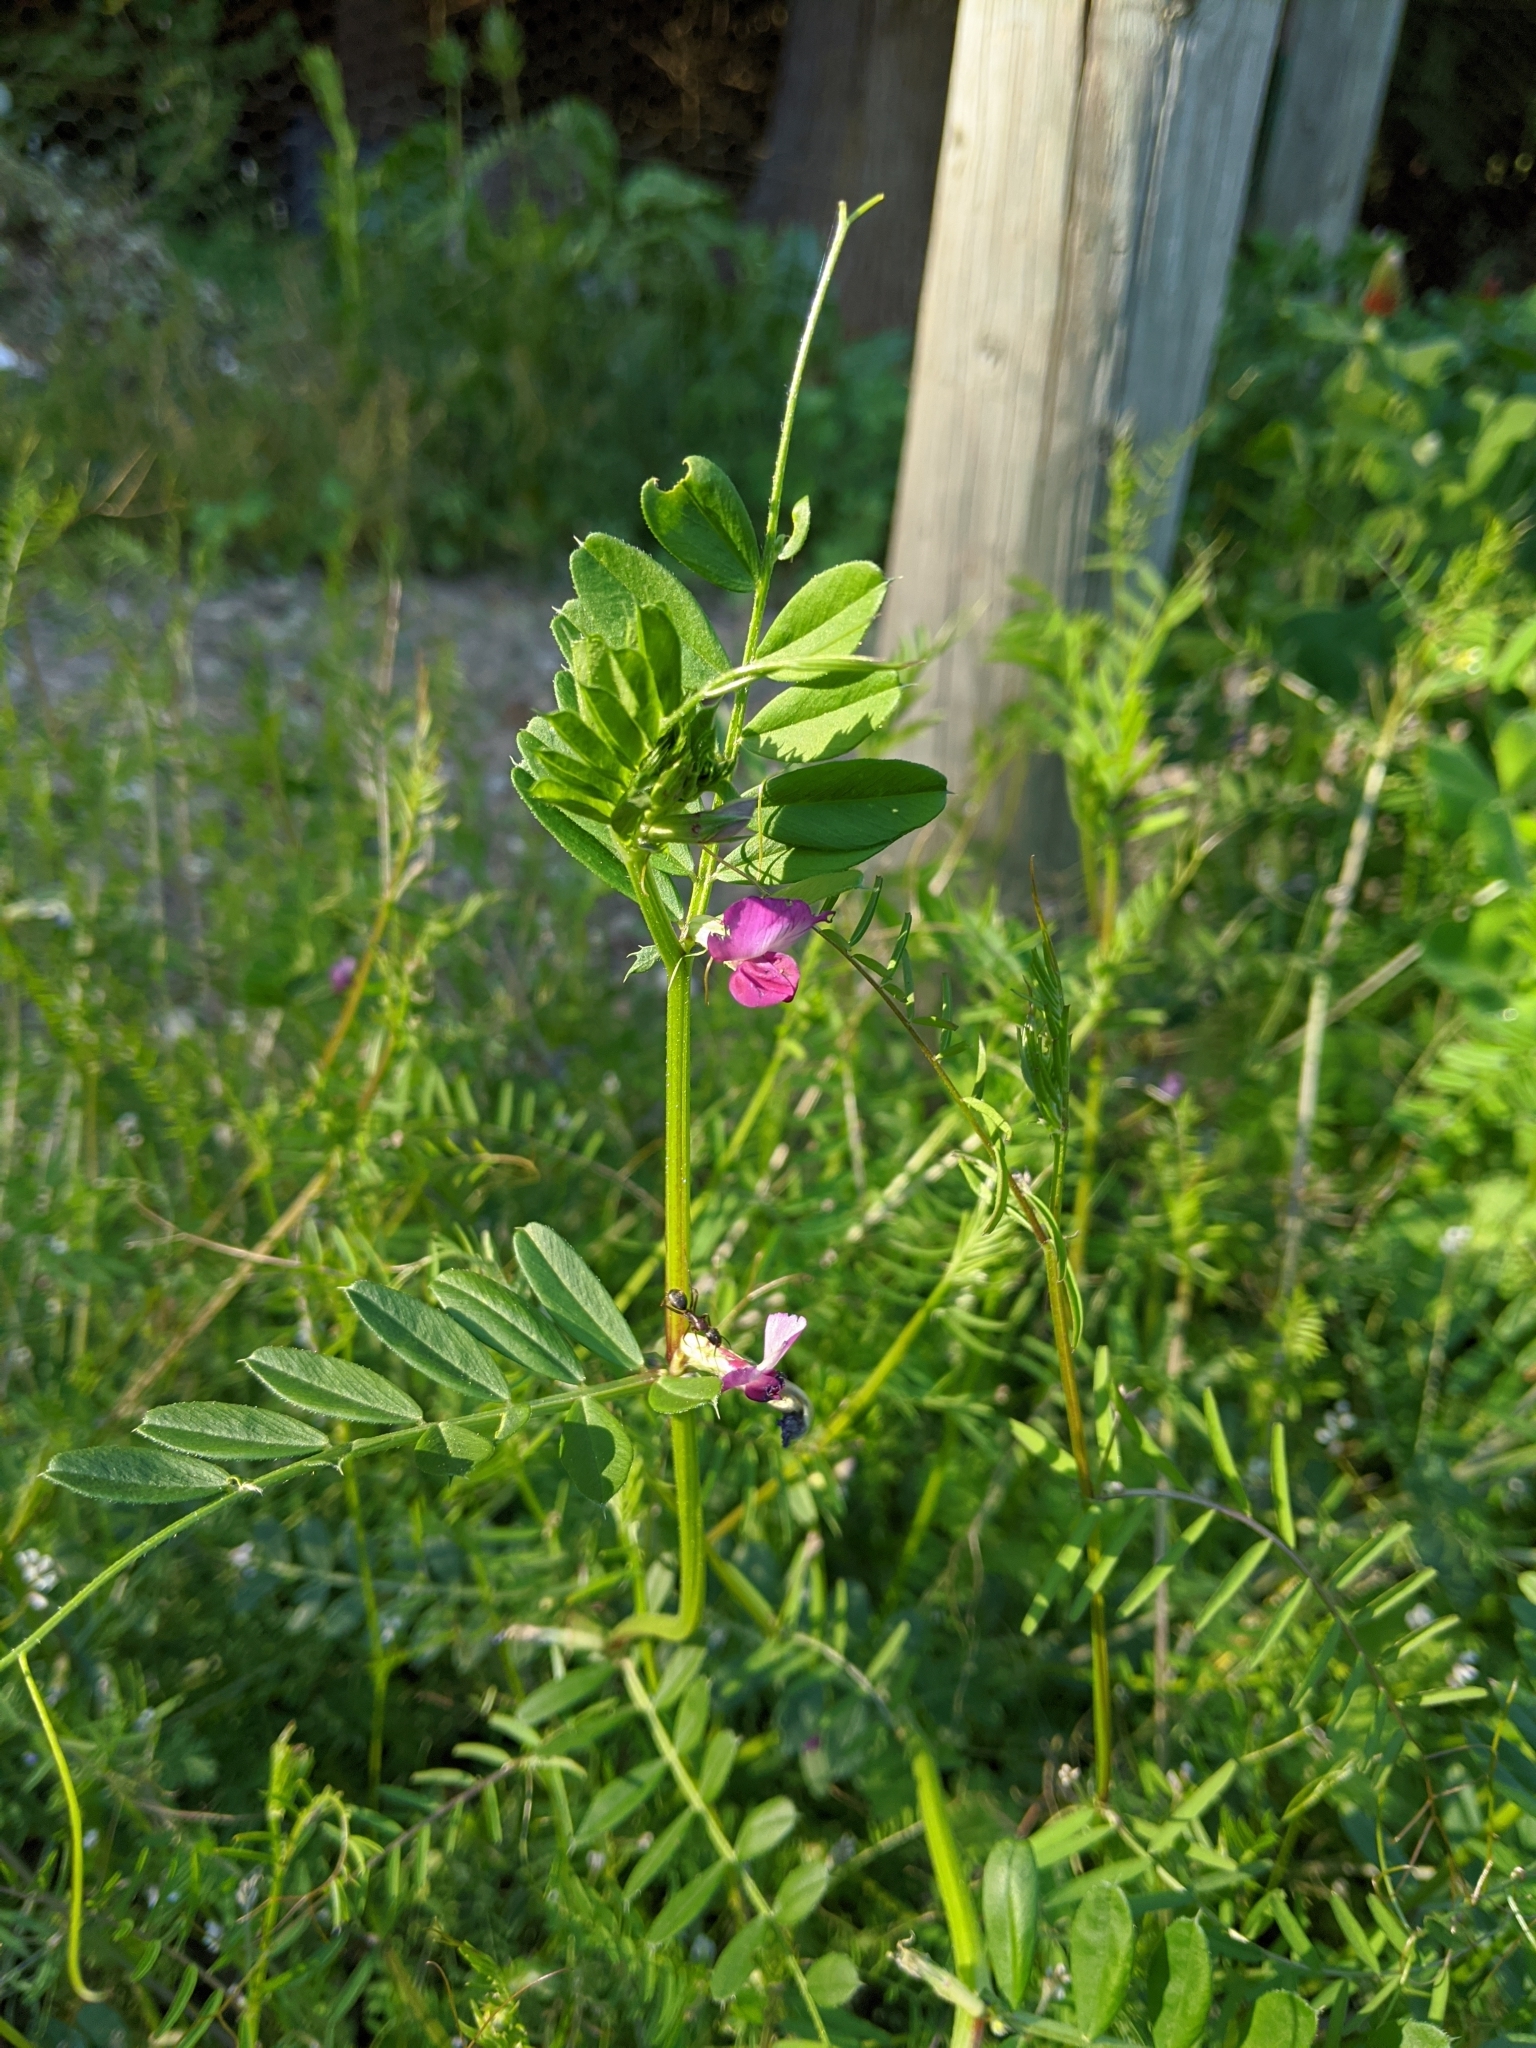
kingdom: Plantae
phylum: Tracheophyta
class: Magnoliopsida
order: Fabales
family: Fabaceae
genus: Vicia
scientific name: Vicia sativa
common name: Garden vetch
